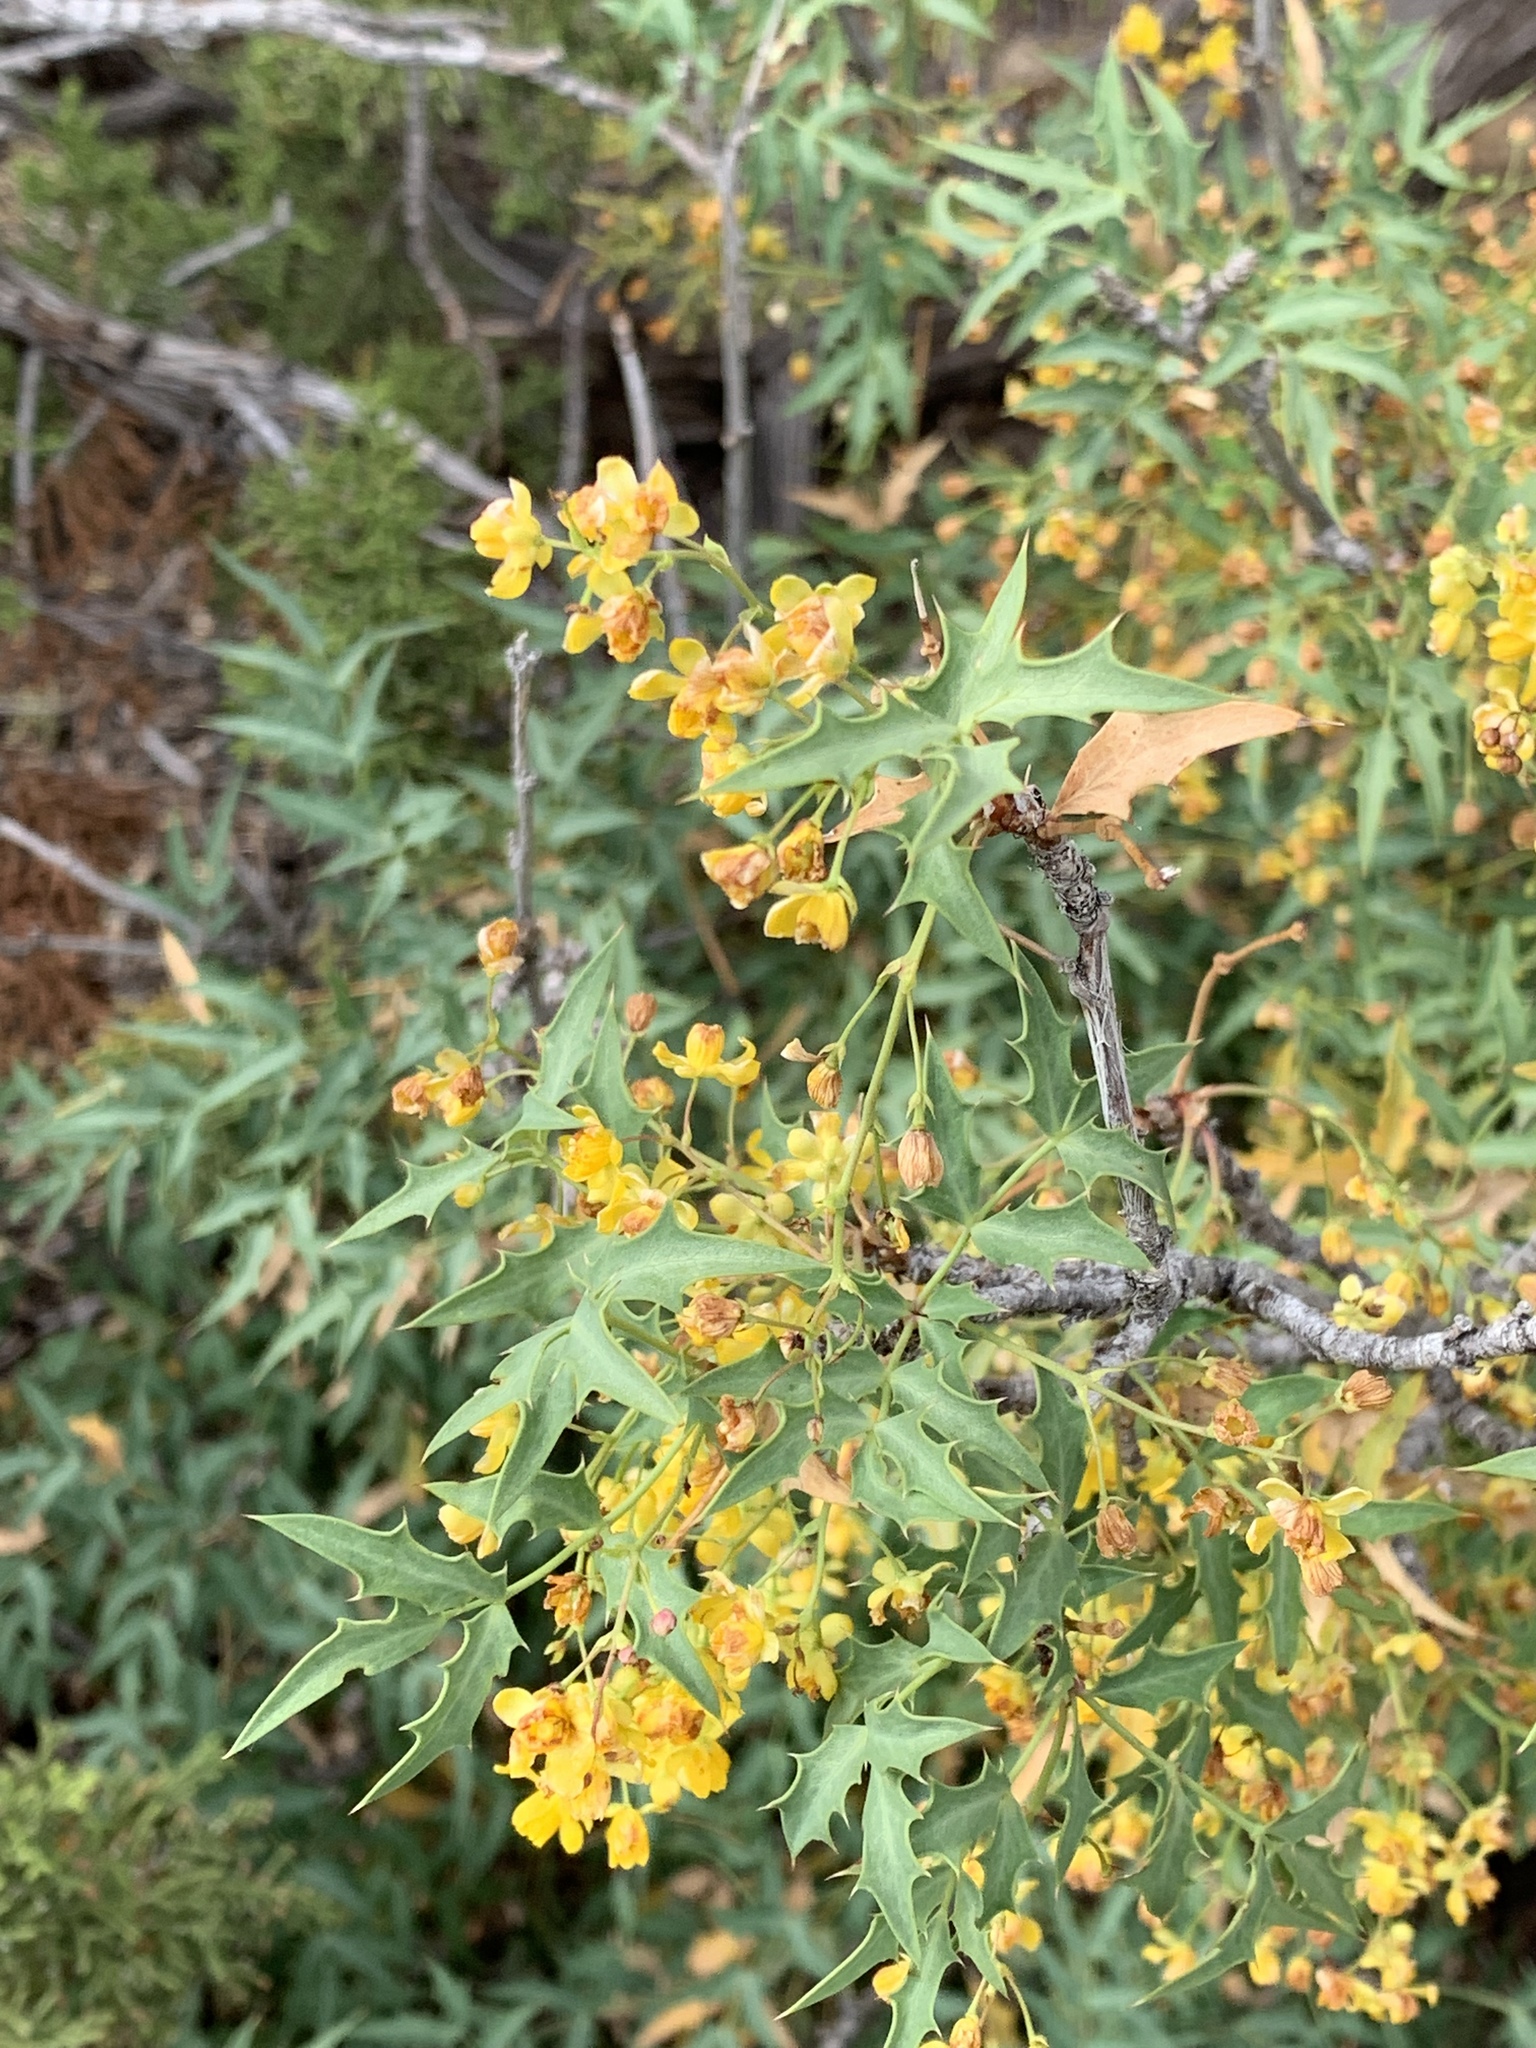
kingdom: Plantae
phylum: Tracheophyta
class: Magnoliopsida
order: Ranunculales
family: Berberidaceae
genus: Alloberberis
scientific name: Alloberberis haematocarpa
